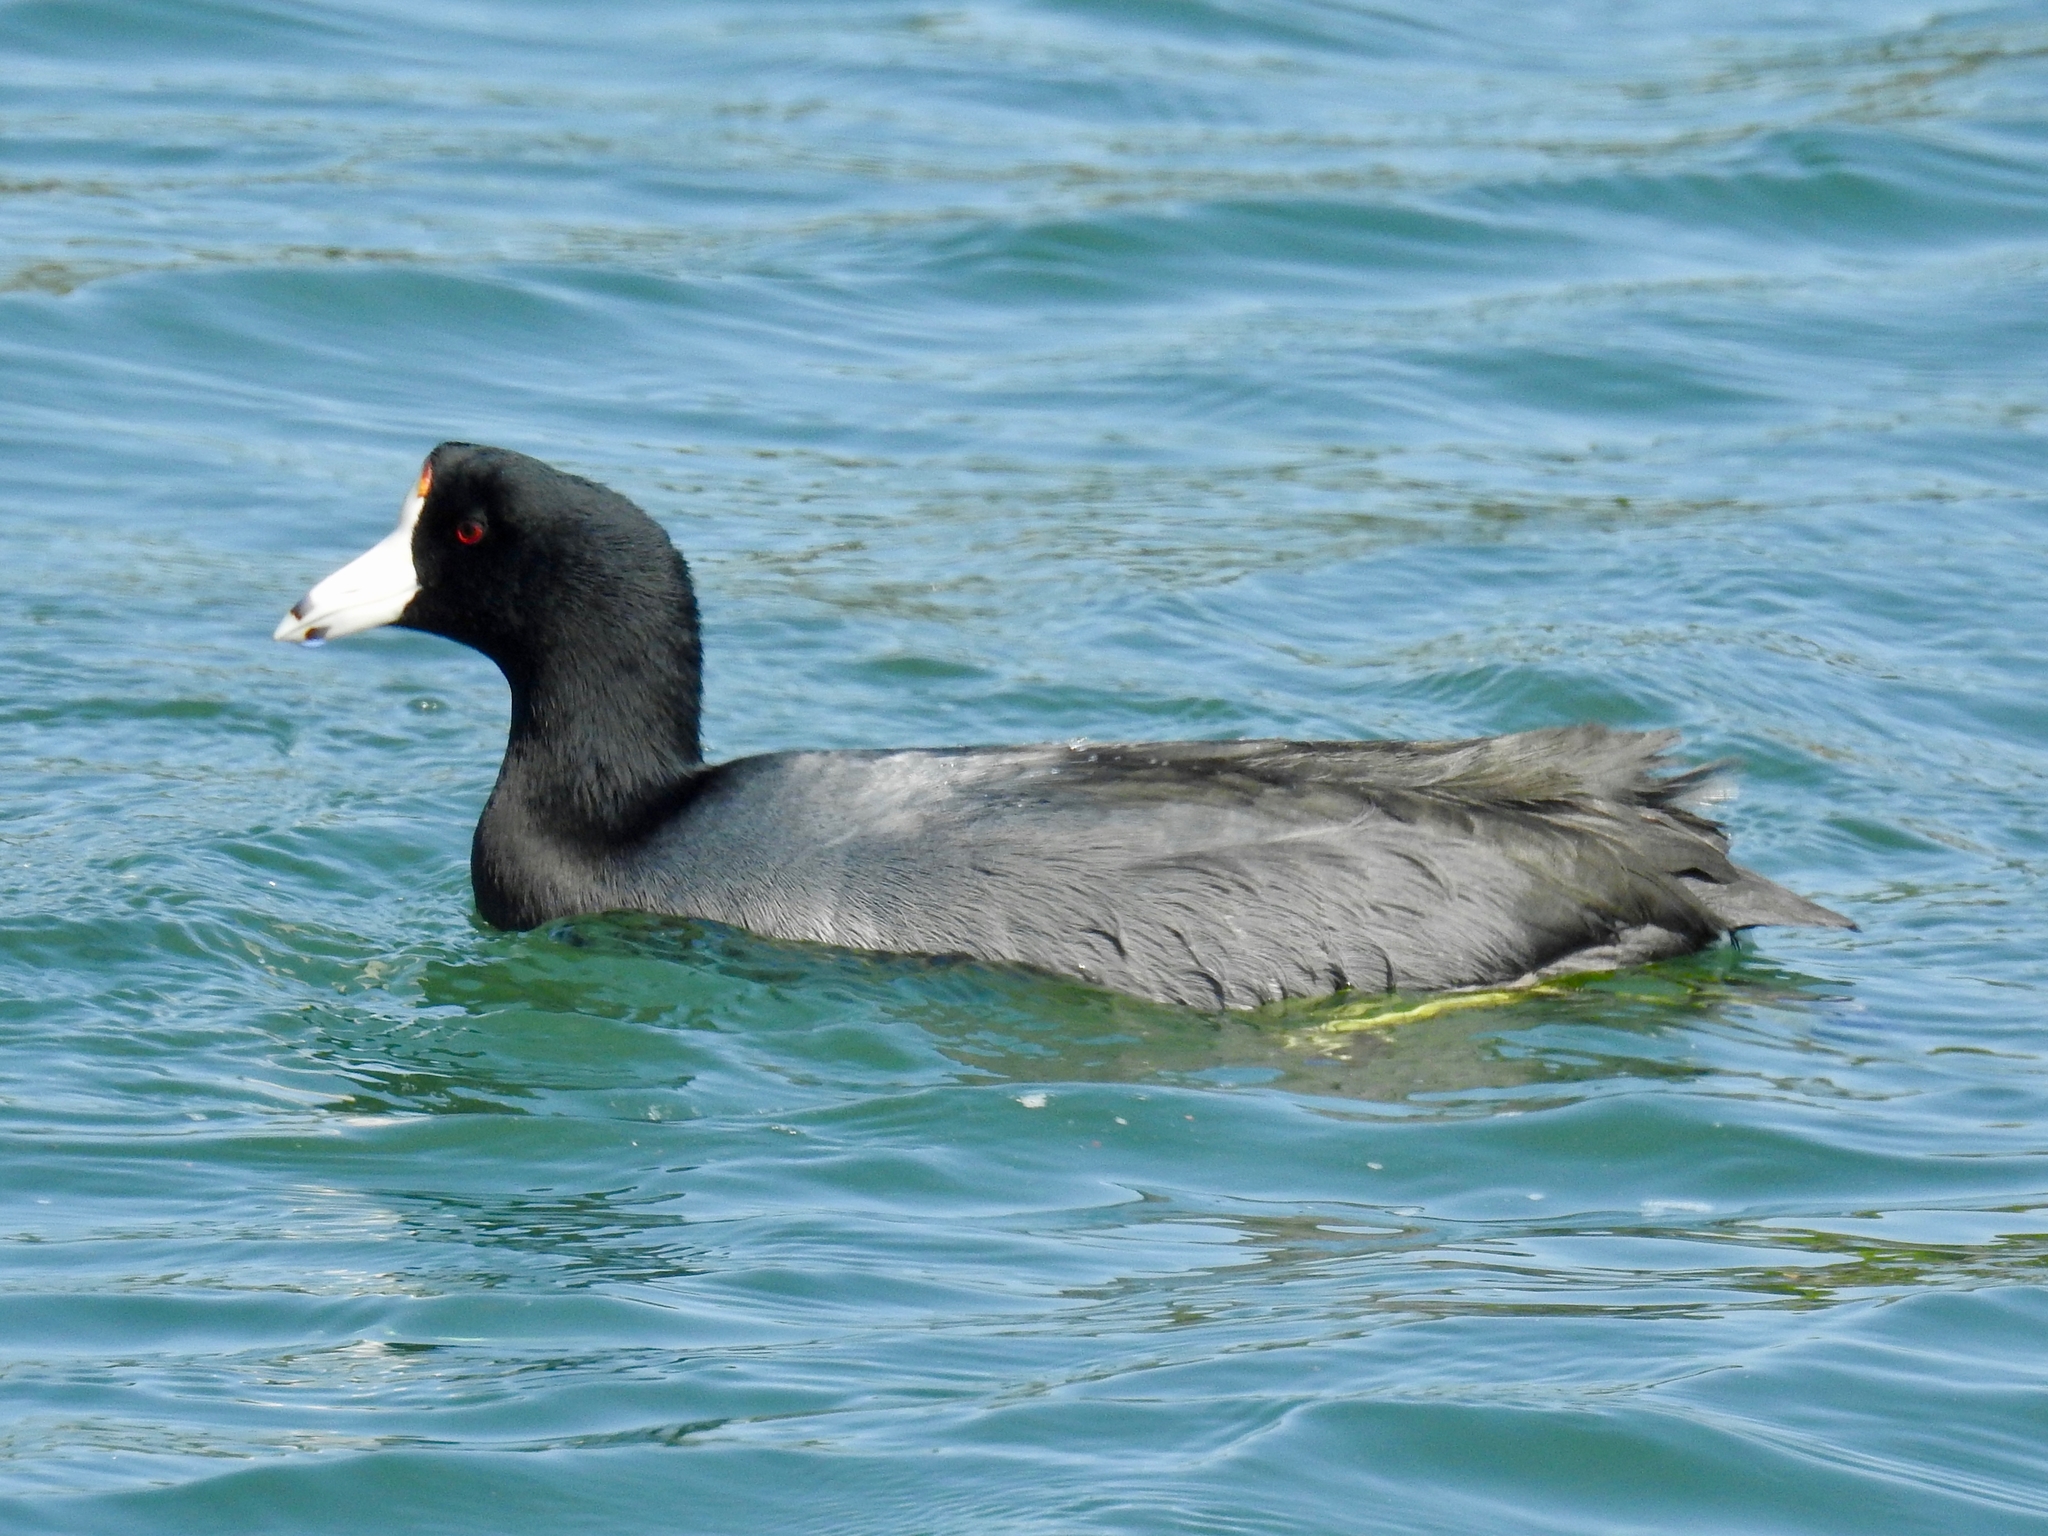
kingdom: Animalia
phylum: Chordata
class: Aves
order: Gruiformes
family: Rallidae
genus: Fulica
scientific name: Fulica americana
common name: American coot
